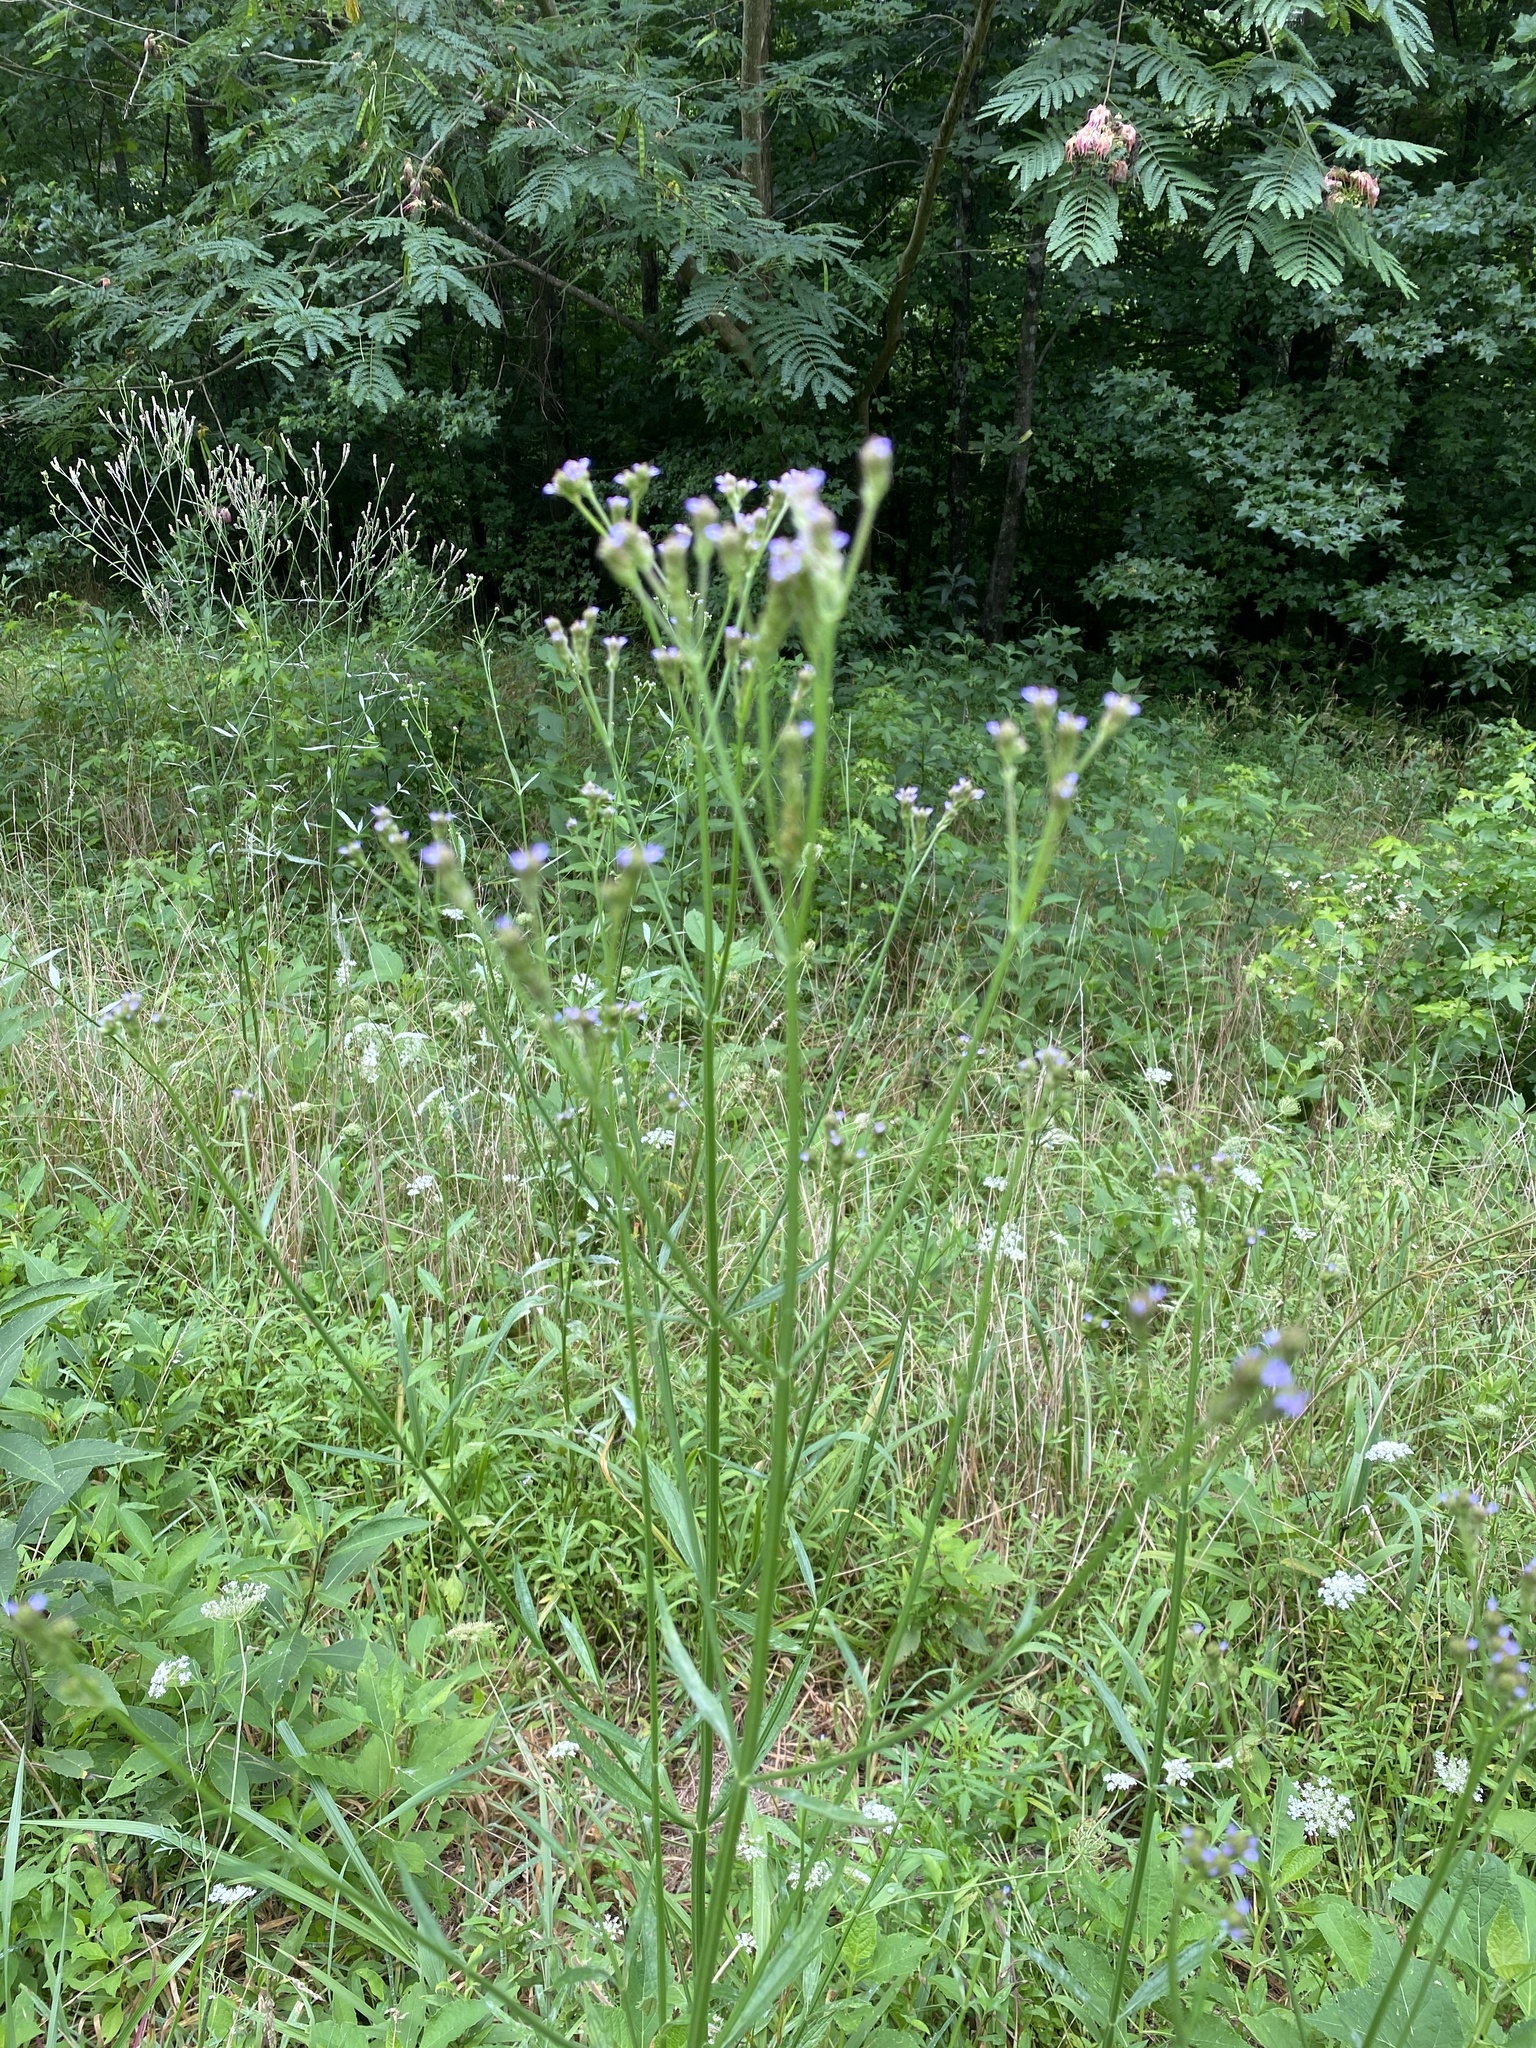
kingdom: Plantae
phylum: Tracheophyta
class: Magnoliopsida
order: Lamiales
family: Verbenaceae
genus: Verbena
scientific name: Verbena brasiliensis
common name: Brazilian vervain
